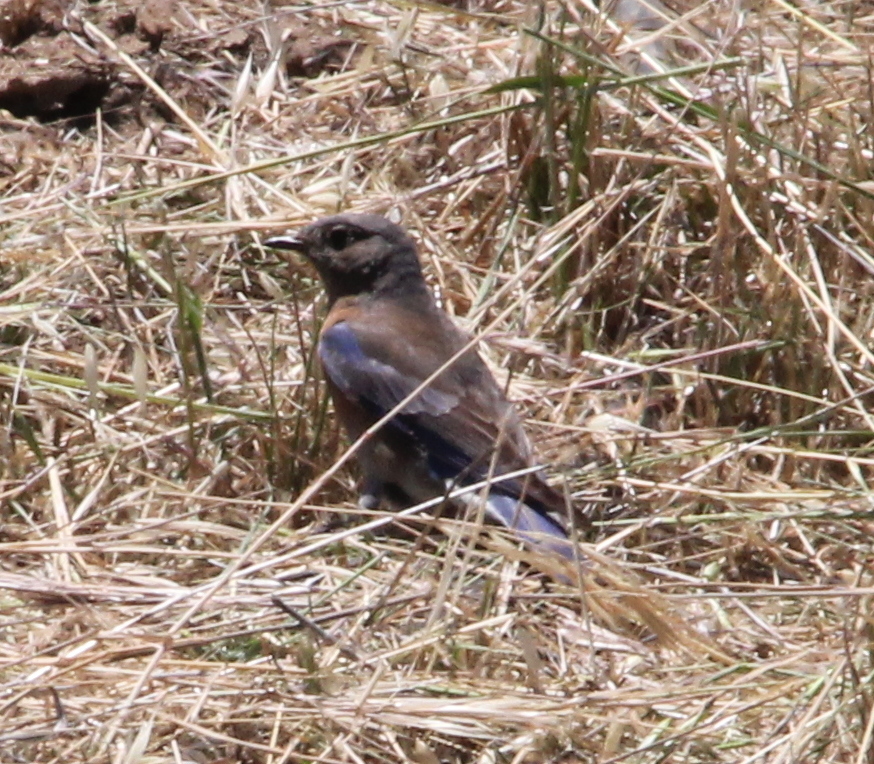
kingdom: Animalia
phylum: Chordata
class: Aves
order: Passeriformes
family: Turdidae
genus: Sialia
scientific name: Sialia mexicana
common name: Western bluebird
